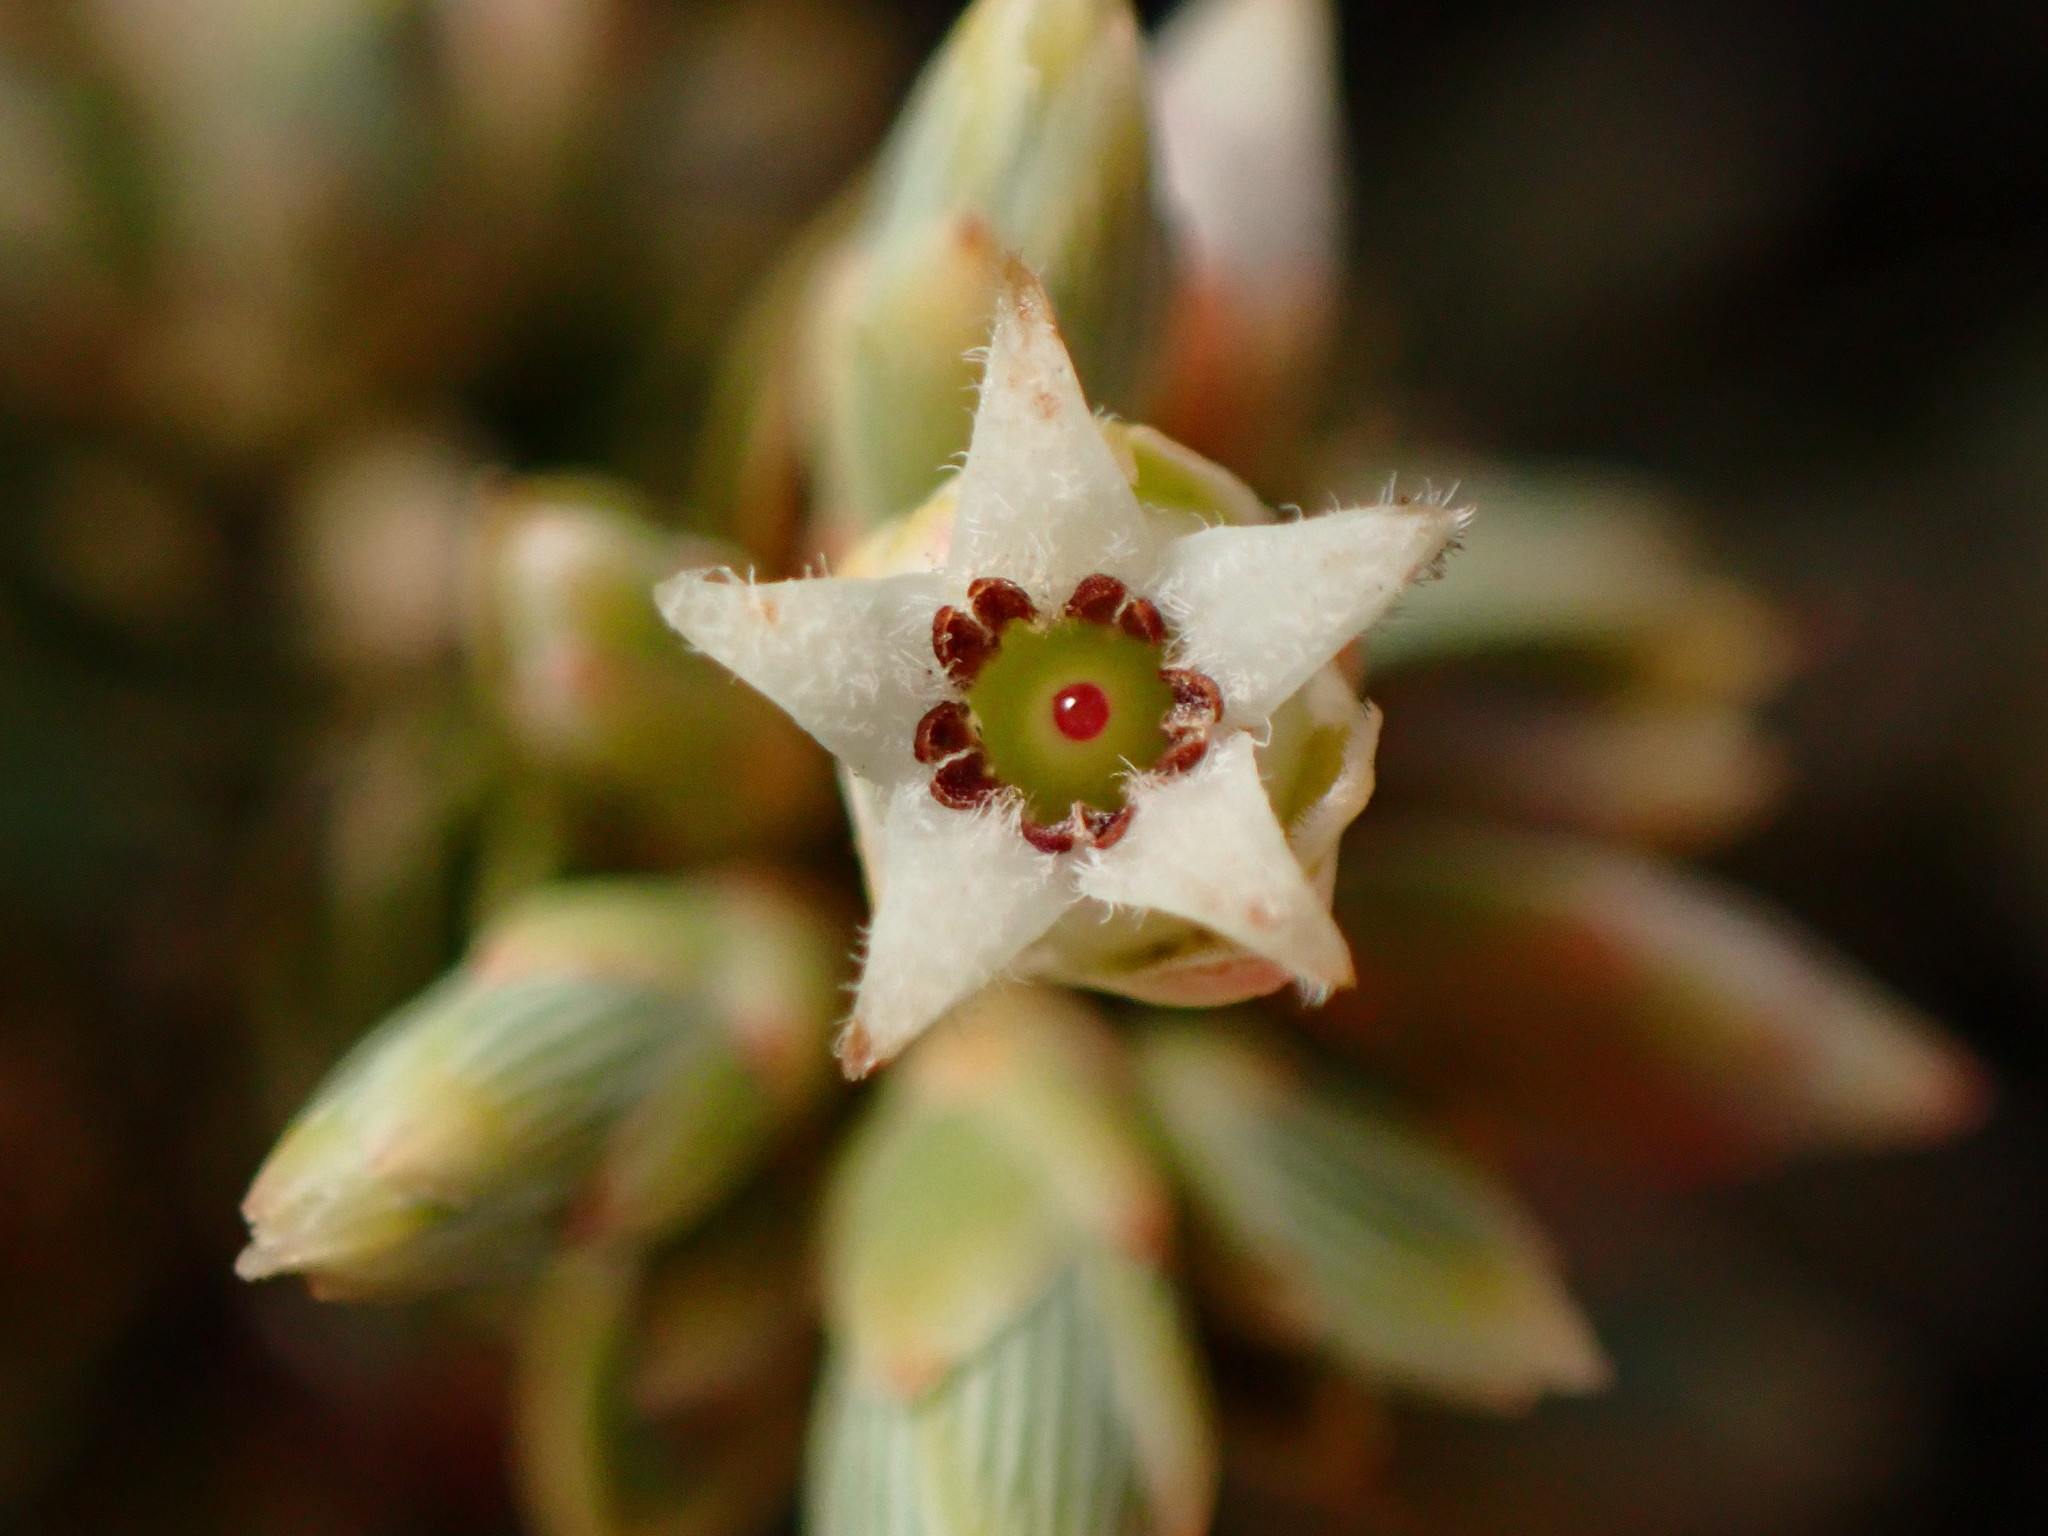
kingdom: Plantae
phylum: Tracheophyta
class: Magnoliopsida
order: Ericales
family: Ericaceae
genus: Leptecophylla
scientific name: Leptecophylla tameiameiae
